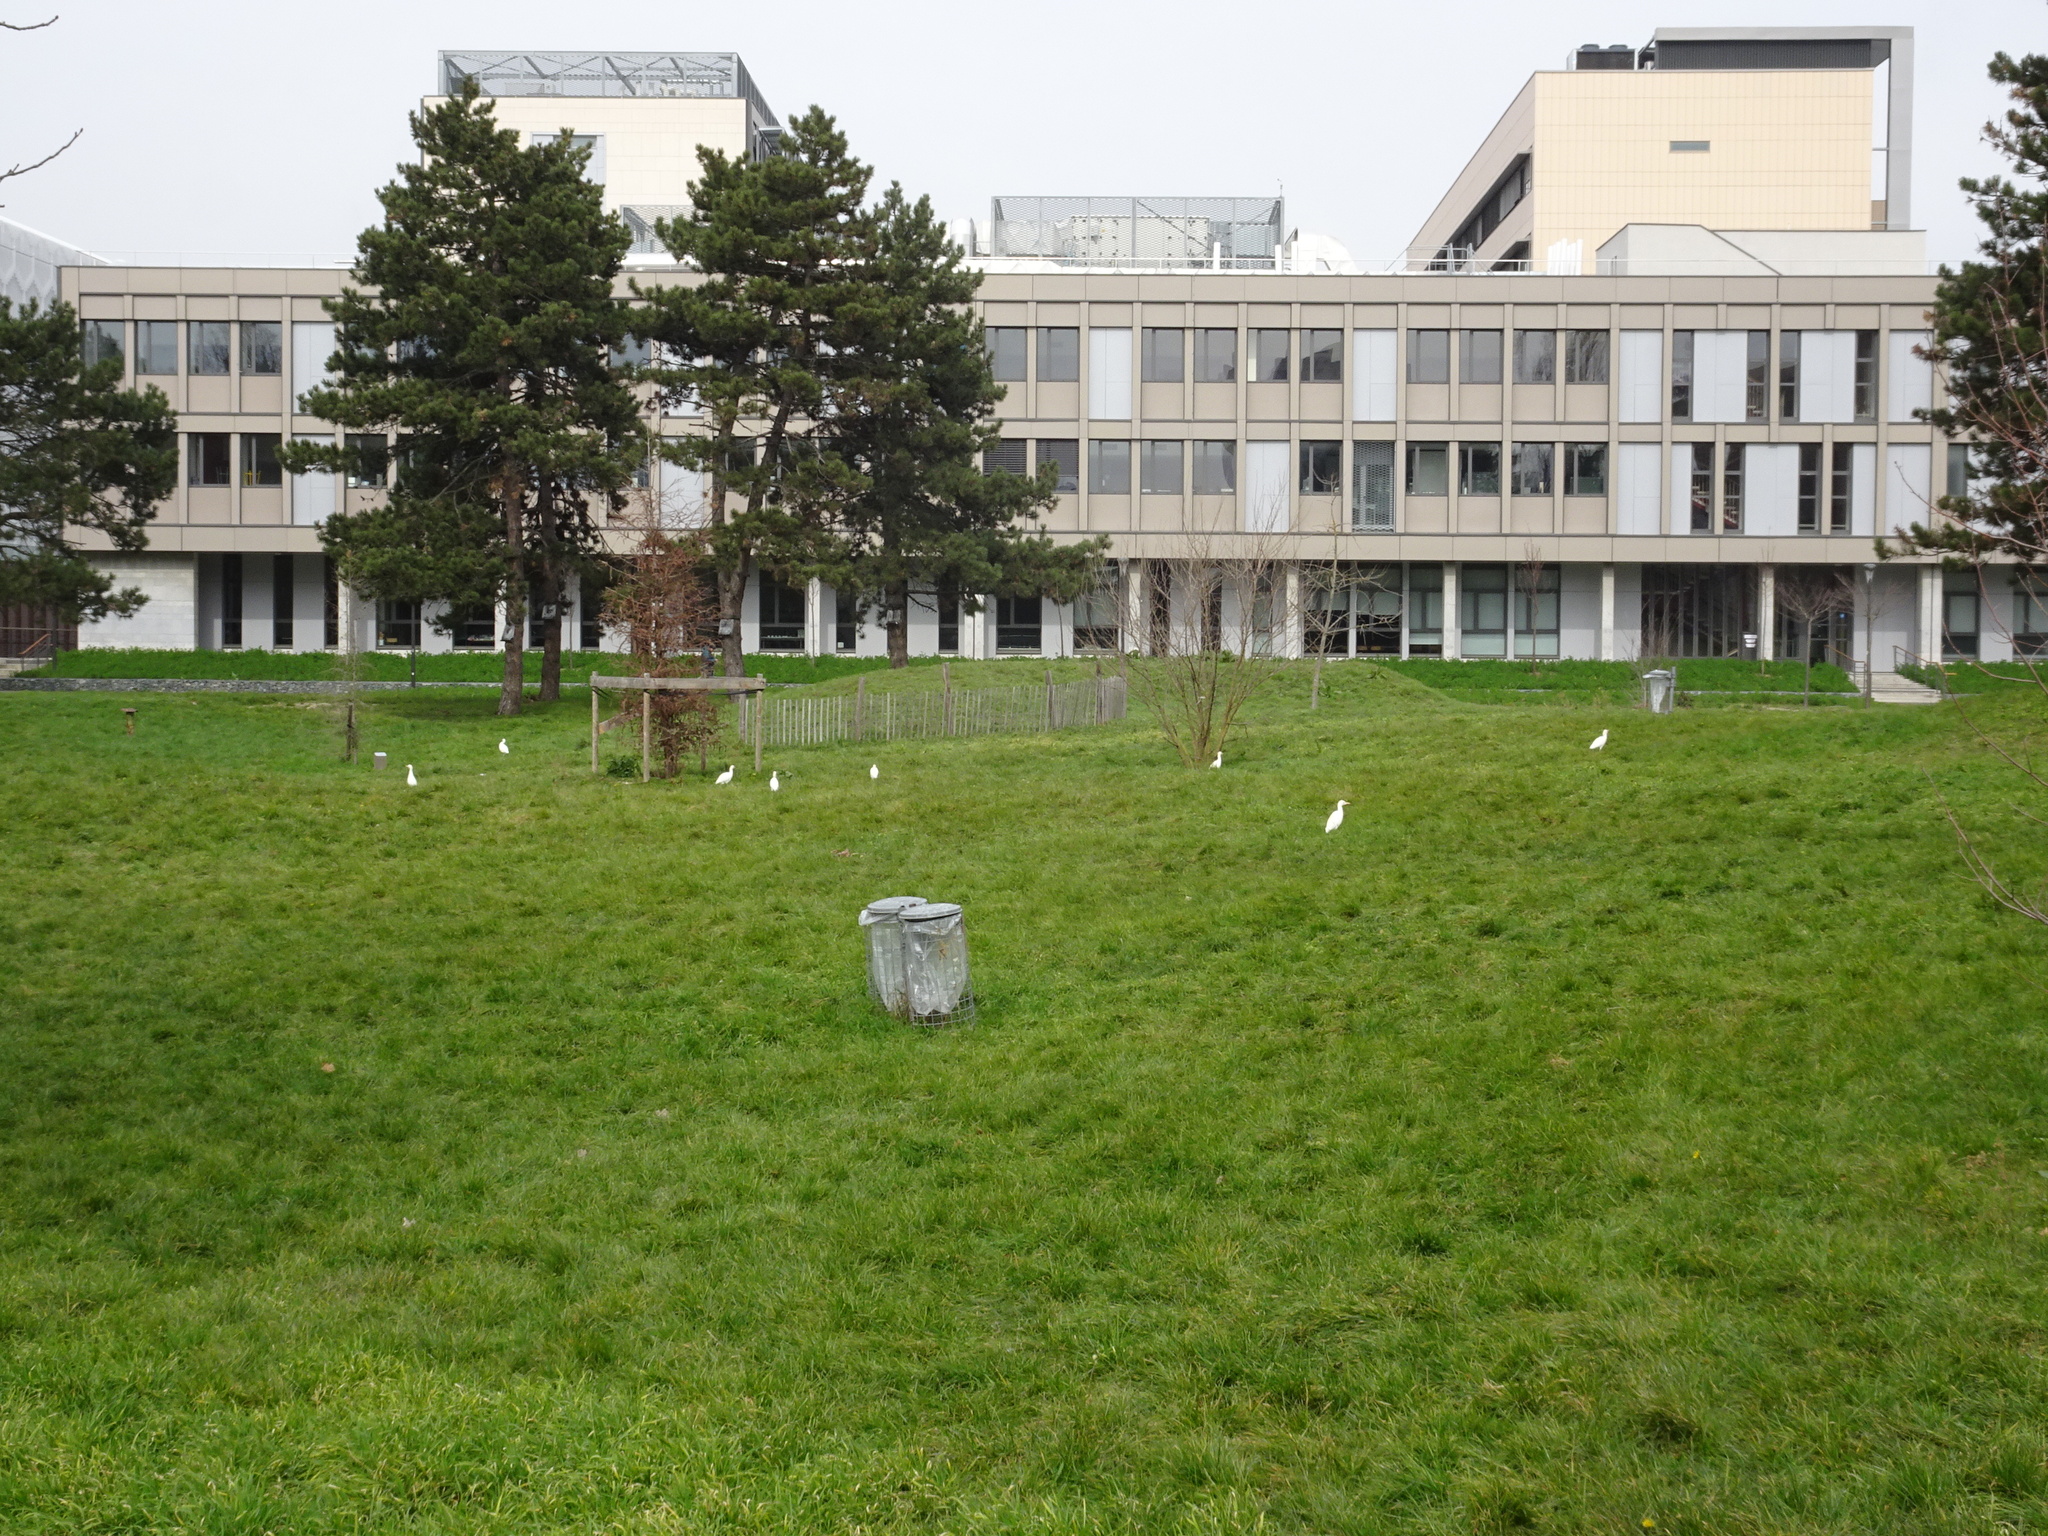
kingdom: Animalia
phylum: Chordata
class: Aves
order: Pelecaniformes
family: Ardeidae
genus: Bubulcus
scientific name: Bubulcus ibis
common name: Cattle egret
